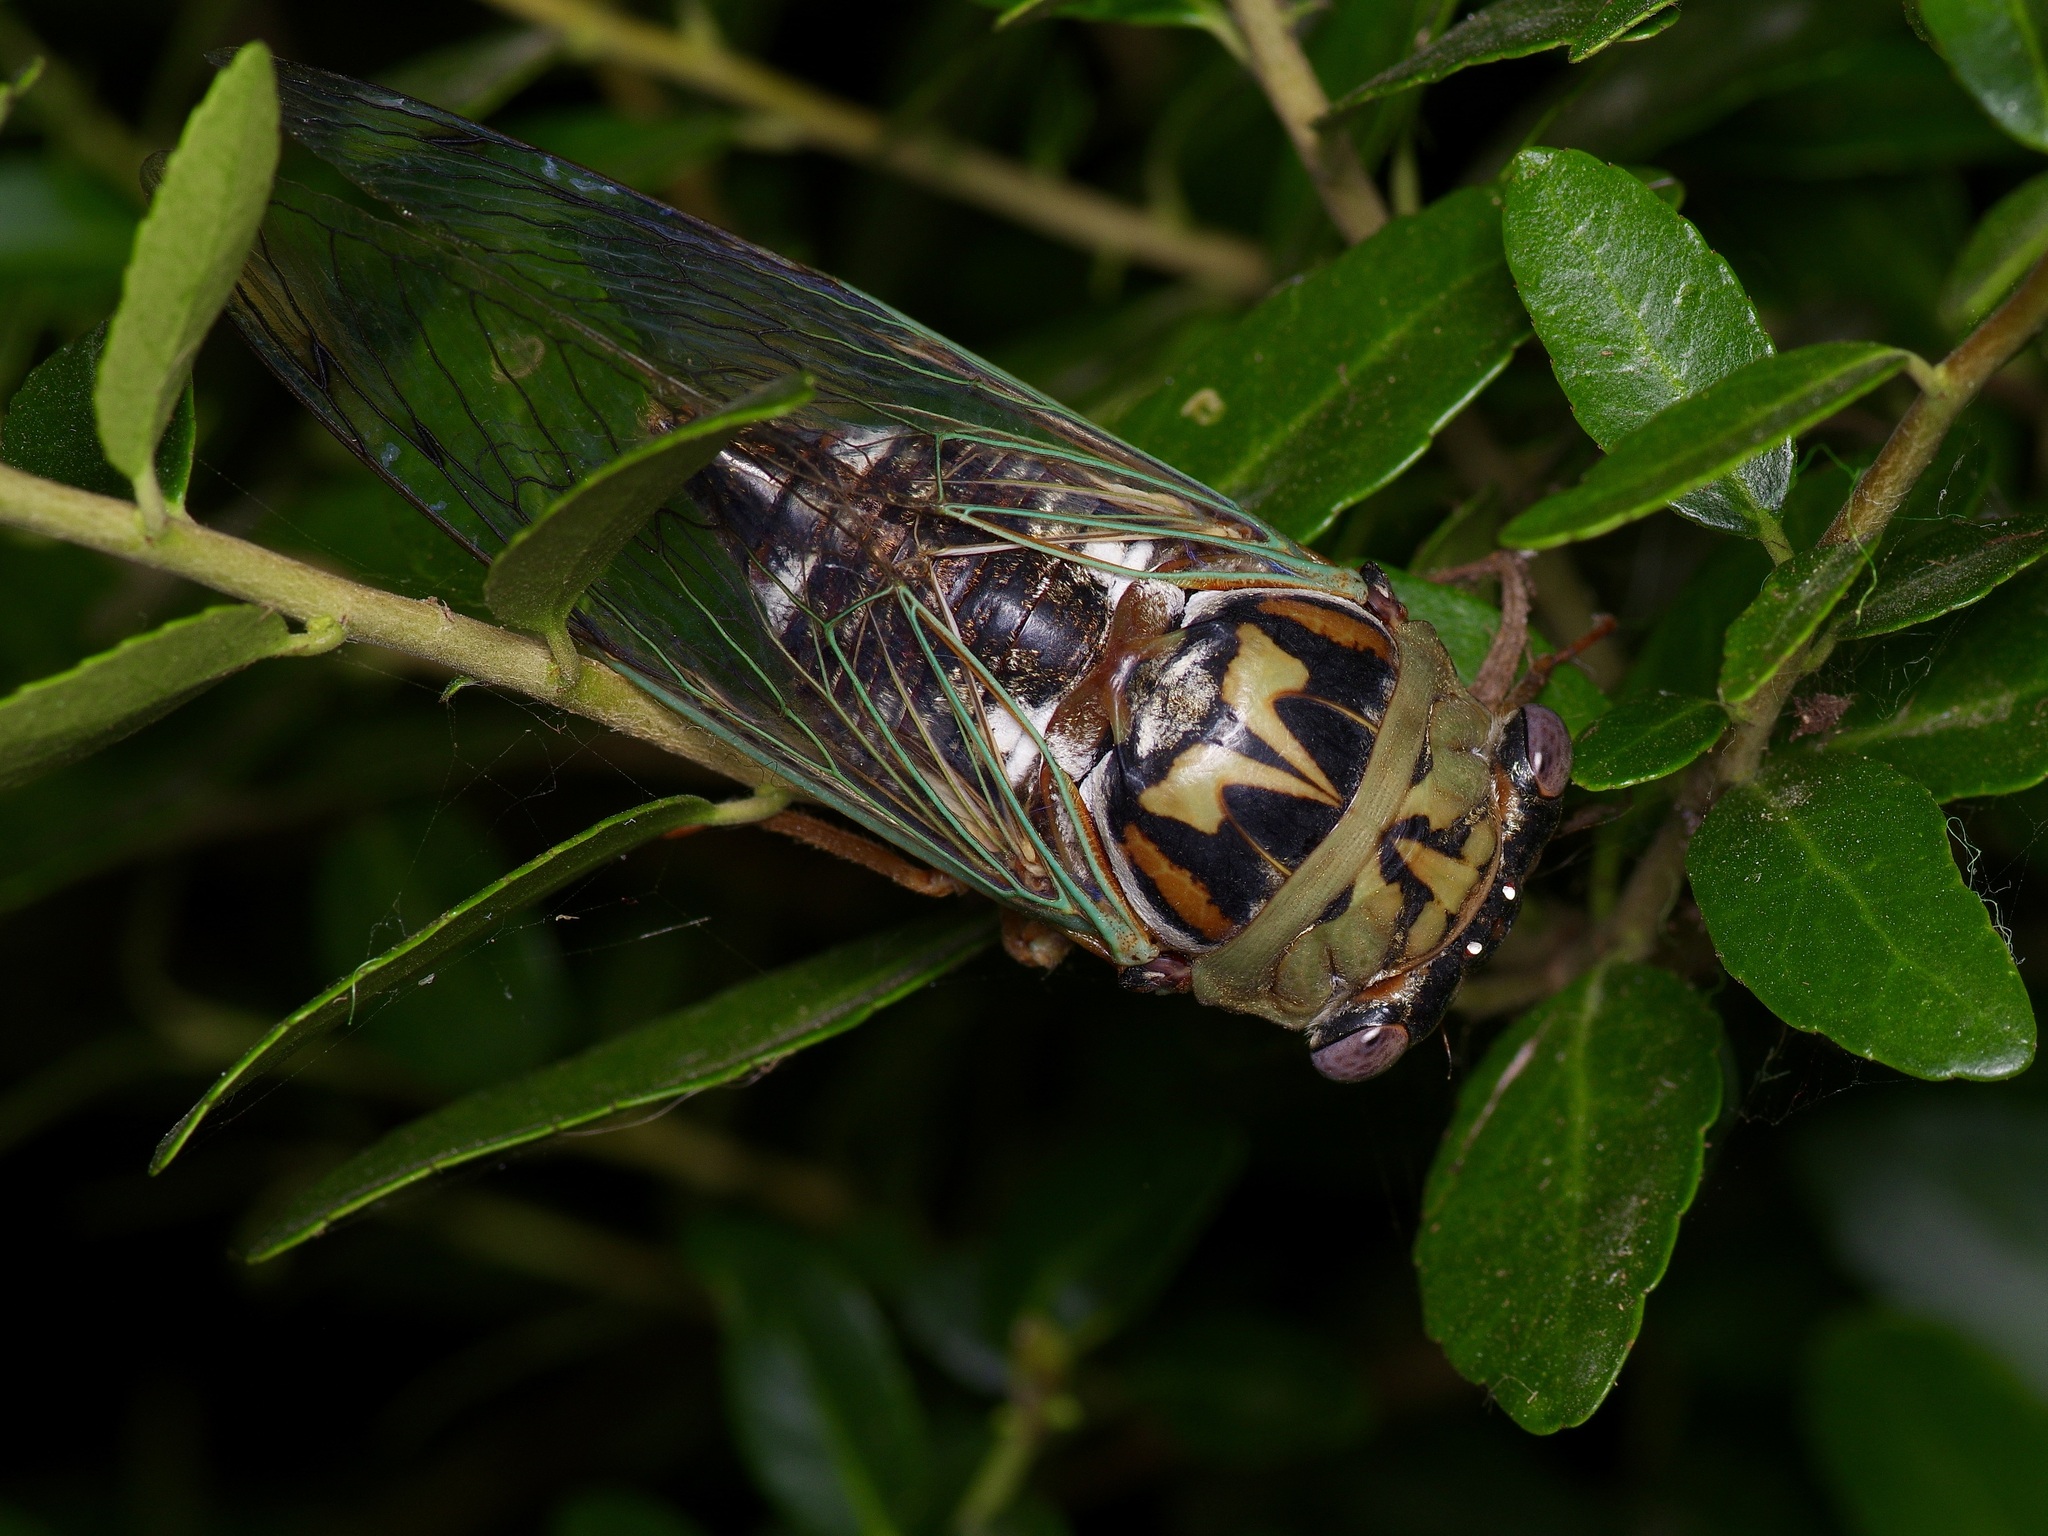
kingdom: Animalia
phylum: Arthropoda
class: Insecta
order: Hemiptera
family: Cicadidae
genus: Megatibicen
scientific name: Megatibicen resh
